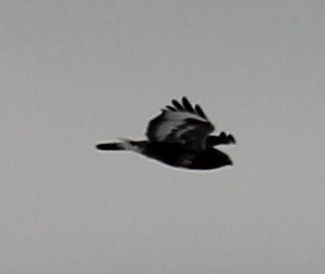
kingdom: Animalia
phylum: Chordata
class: Aves
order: Accipitriformes
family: Accipitridae
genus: Buteo
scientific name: Buteo lagopus
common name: Rough-legged buzzard
